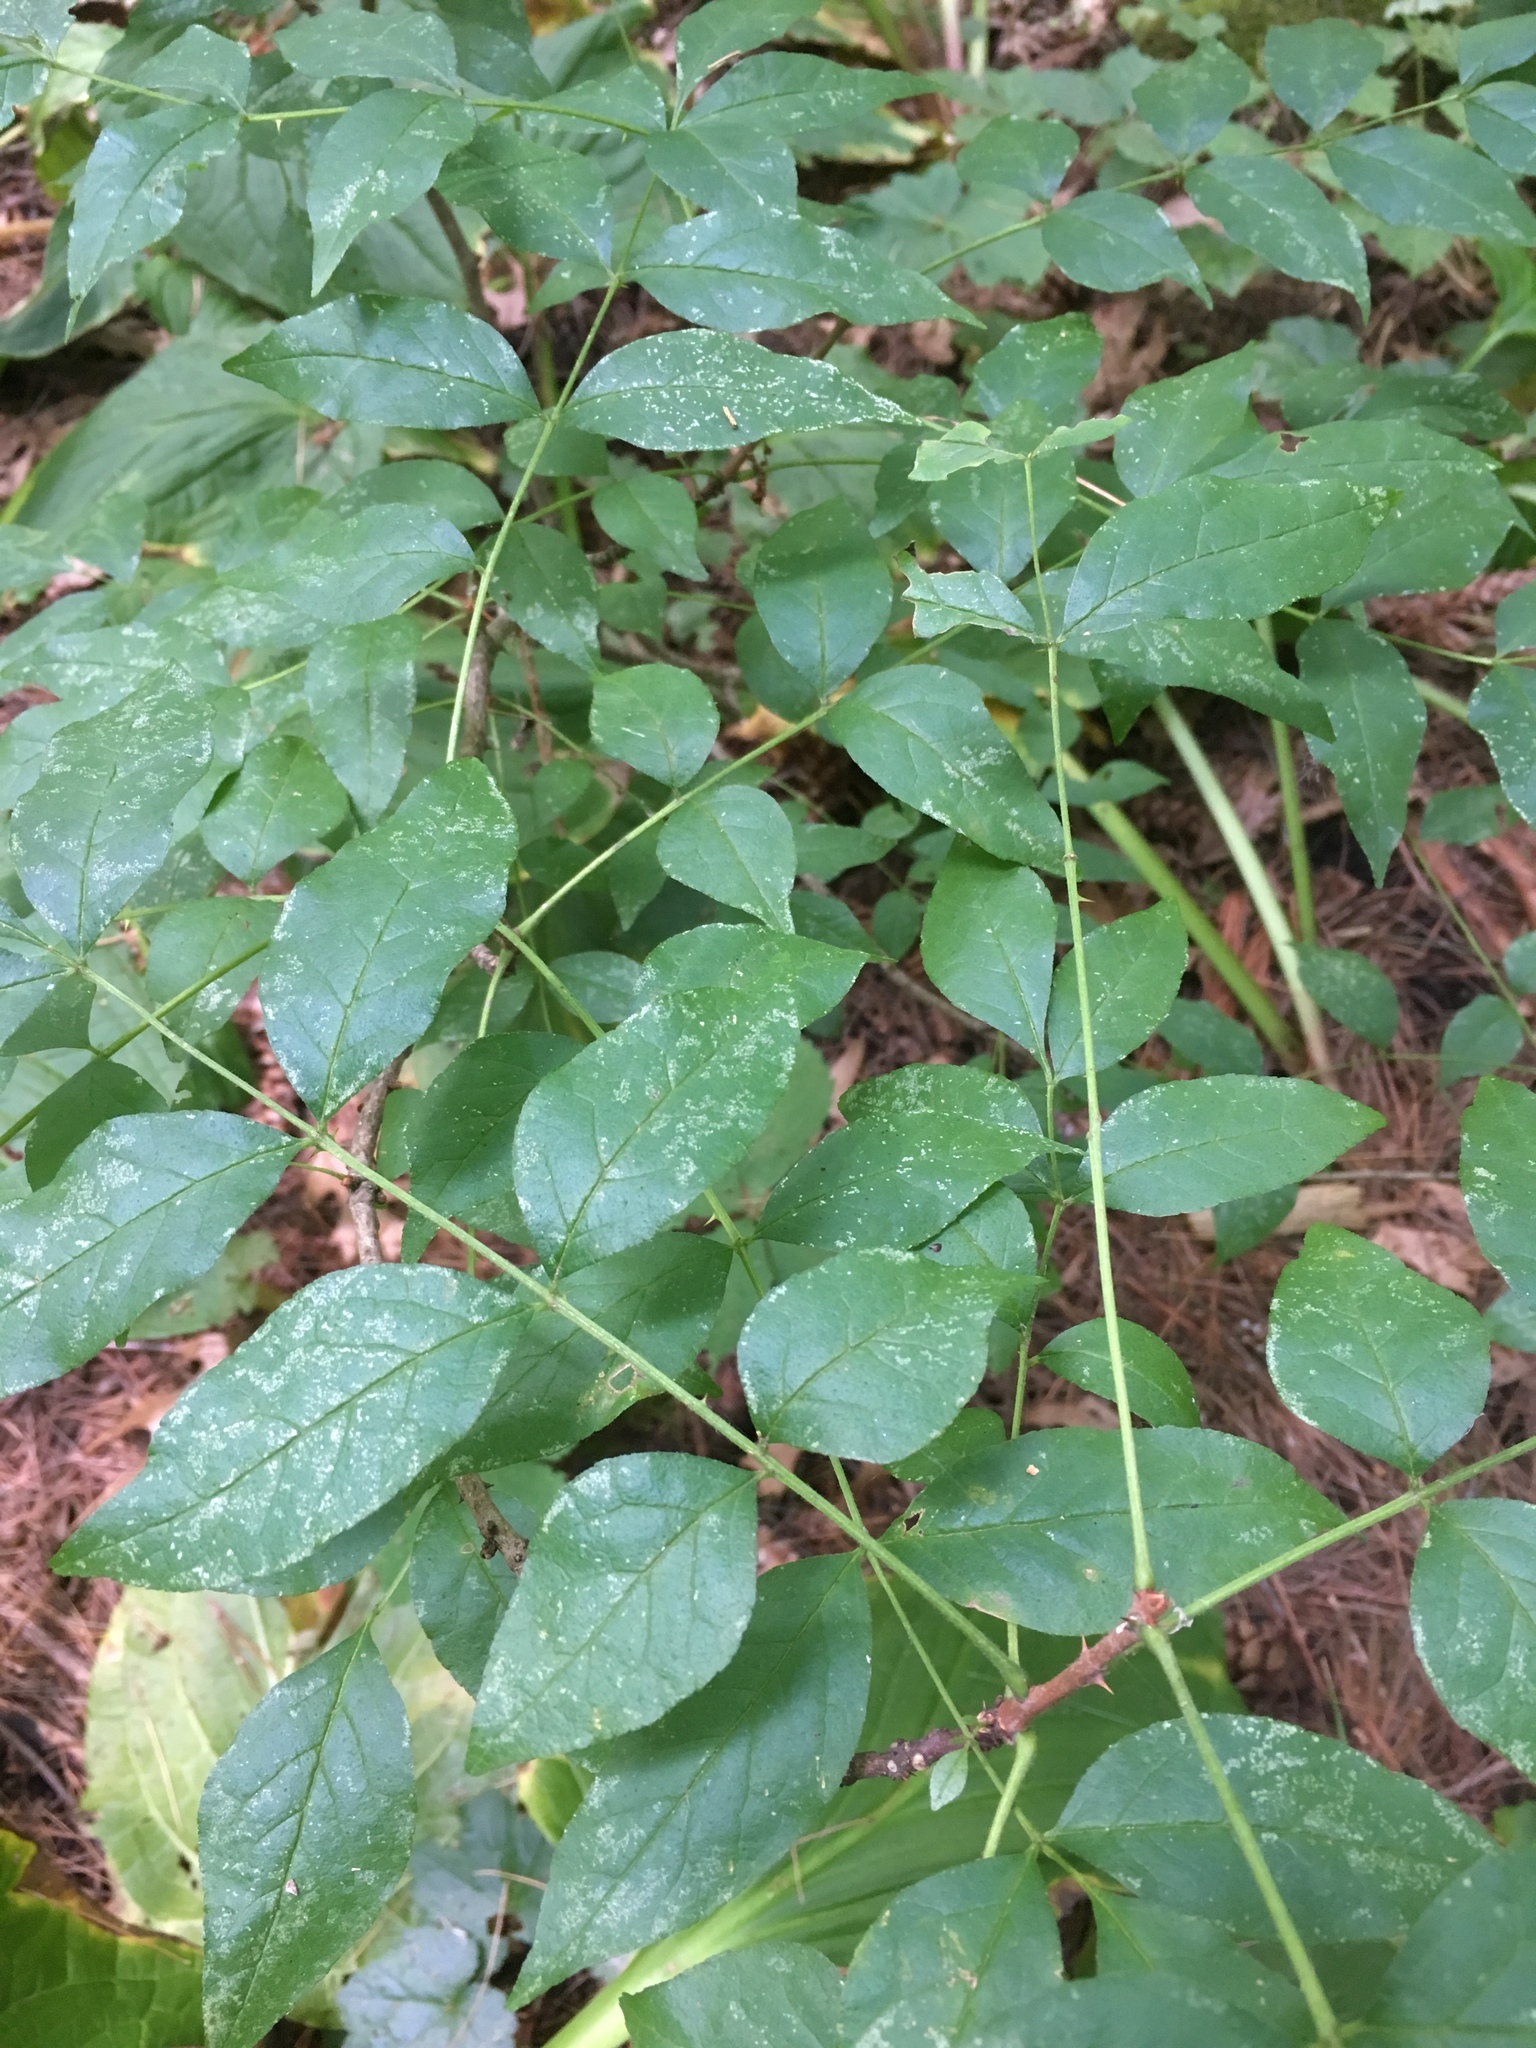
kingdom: Plantae
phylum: Tracheophyta
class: Magnoliopsida
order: Sapindales
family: Rutaceae
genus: Zanthoxylum
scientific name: Zanthoxylum americanum
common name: Northern prickly-ash
